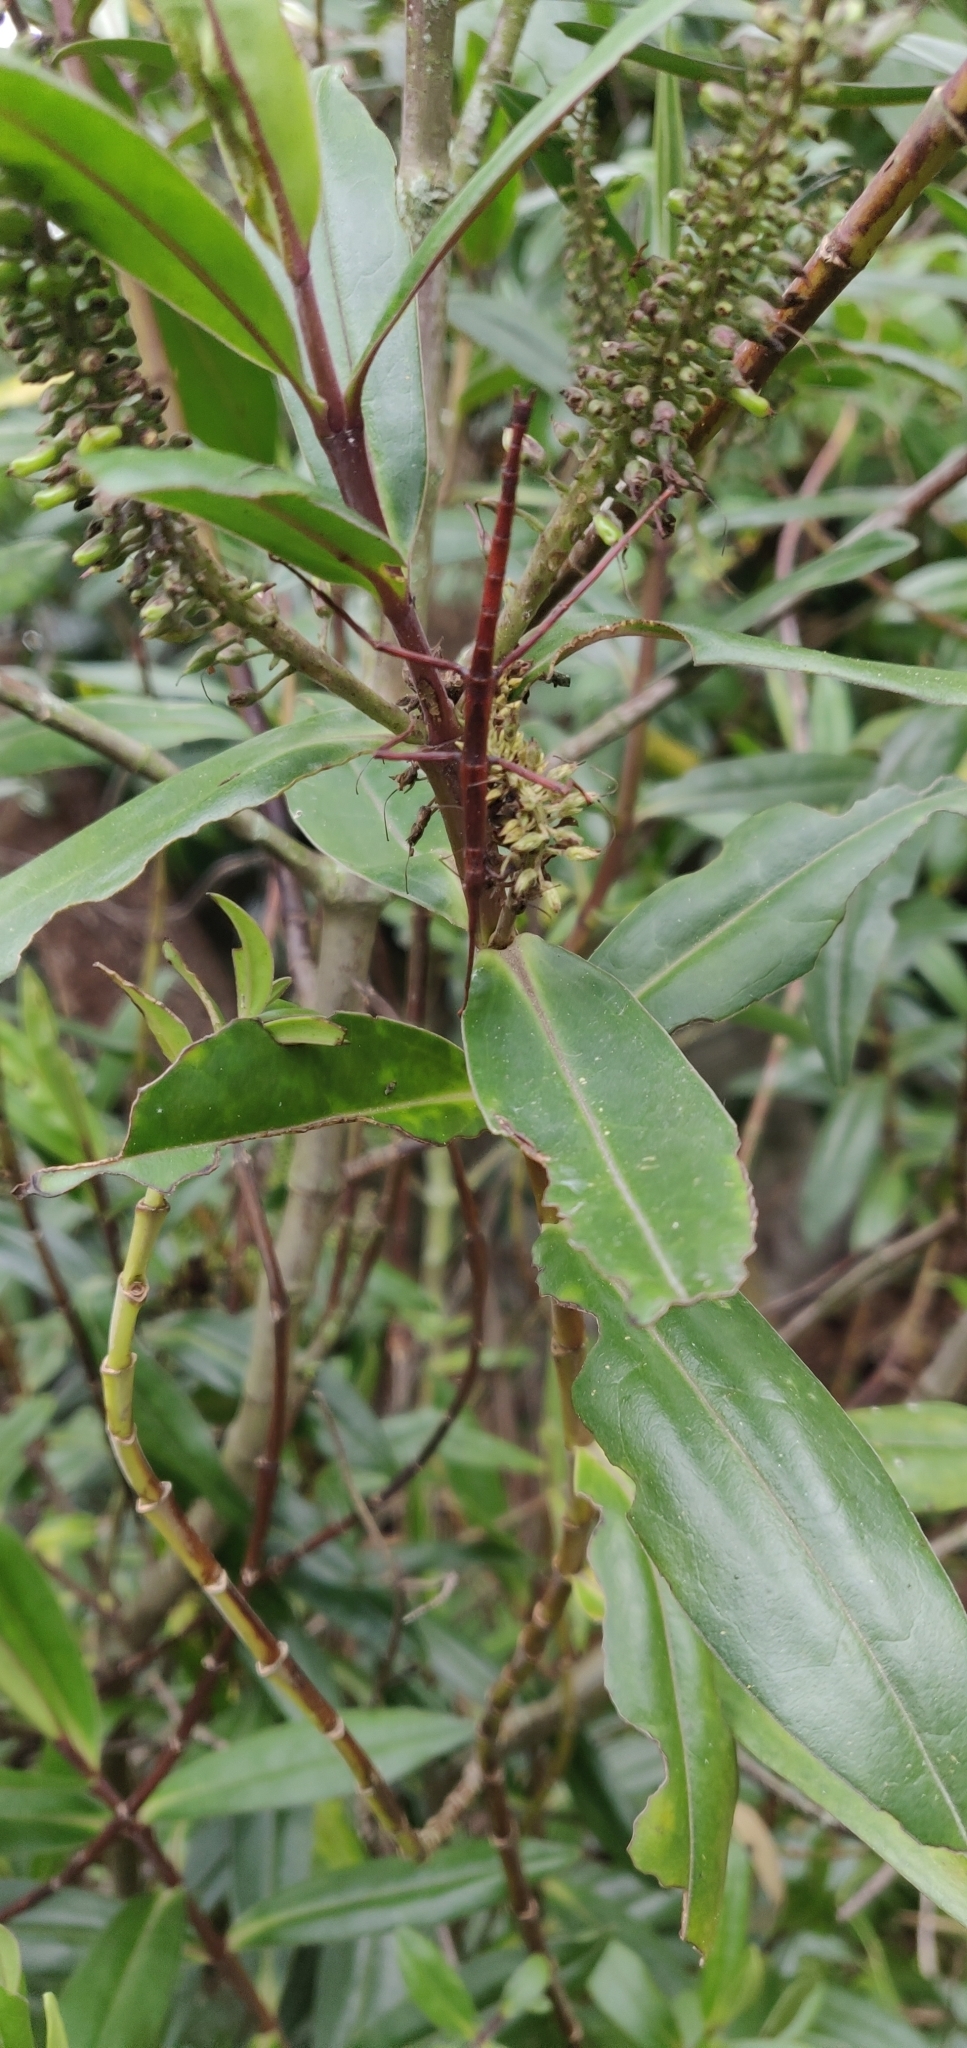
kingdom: Animalia
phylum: Arthropoda
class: Insecta
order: Phasmida
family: Phasmatidae
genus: Acanthoxyla
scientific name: Acanthoxyla inermis
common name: Unarmed stick insect
